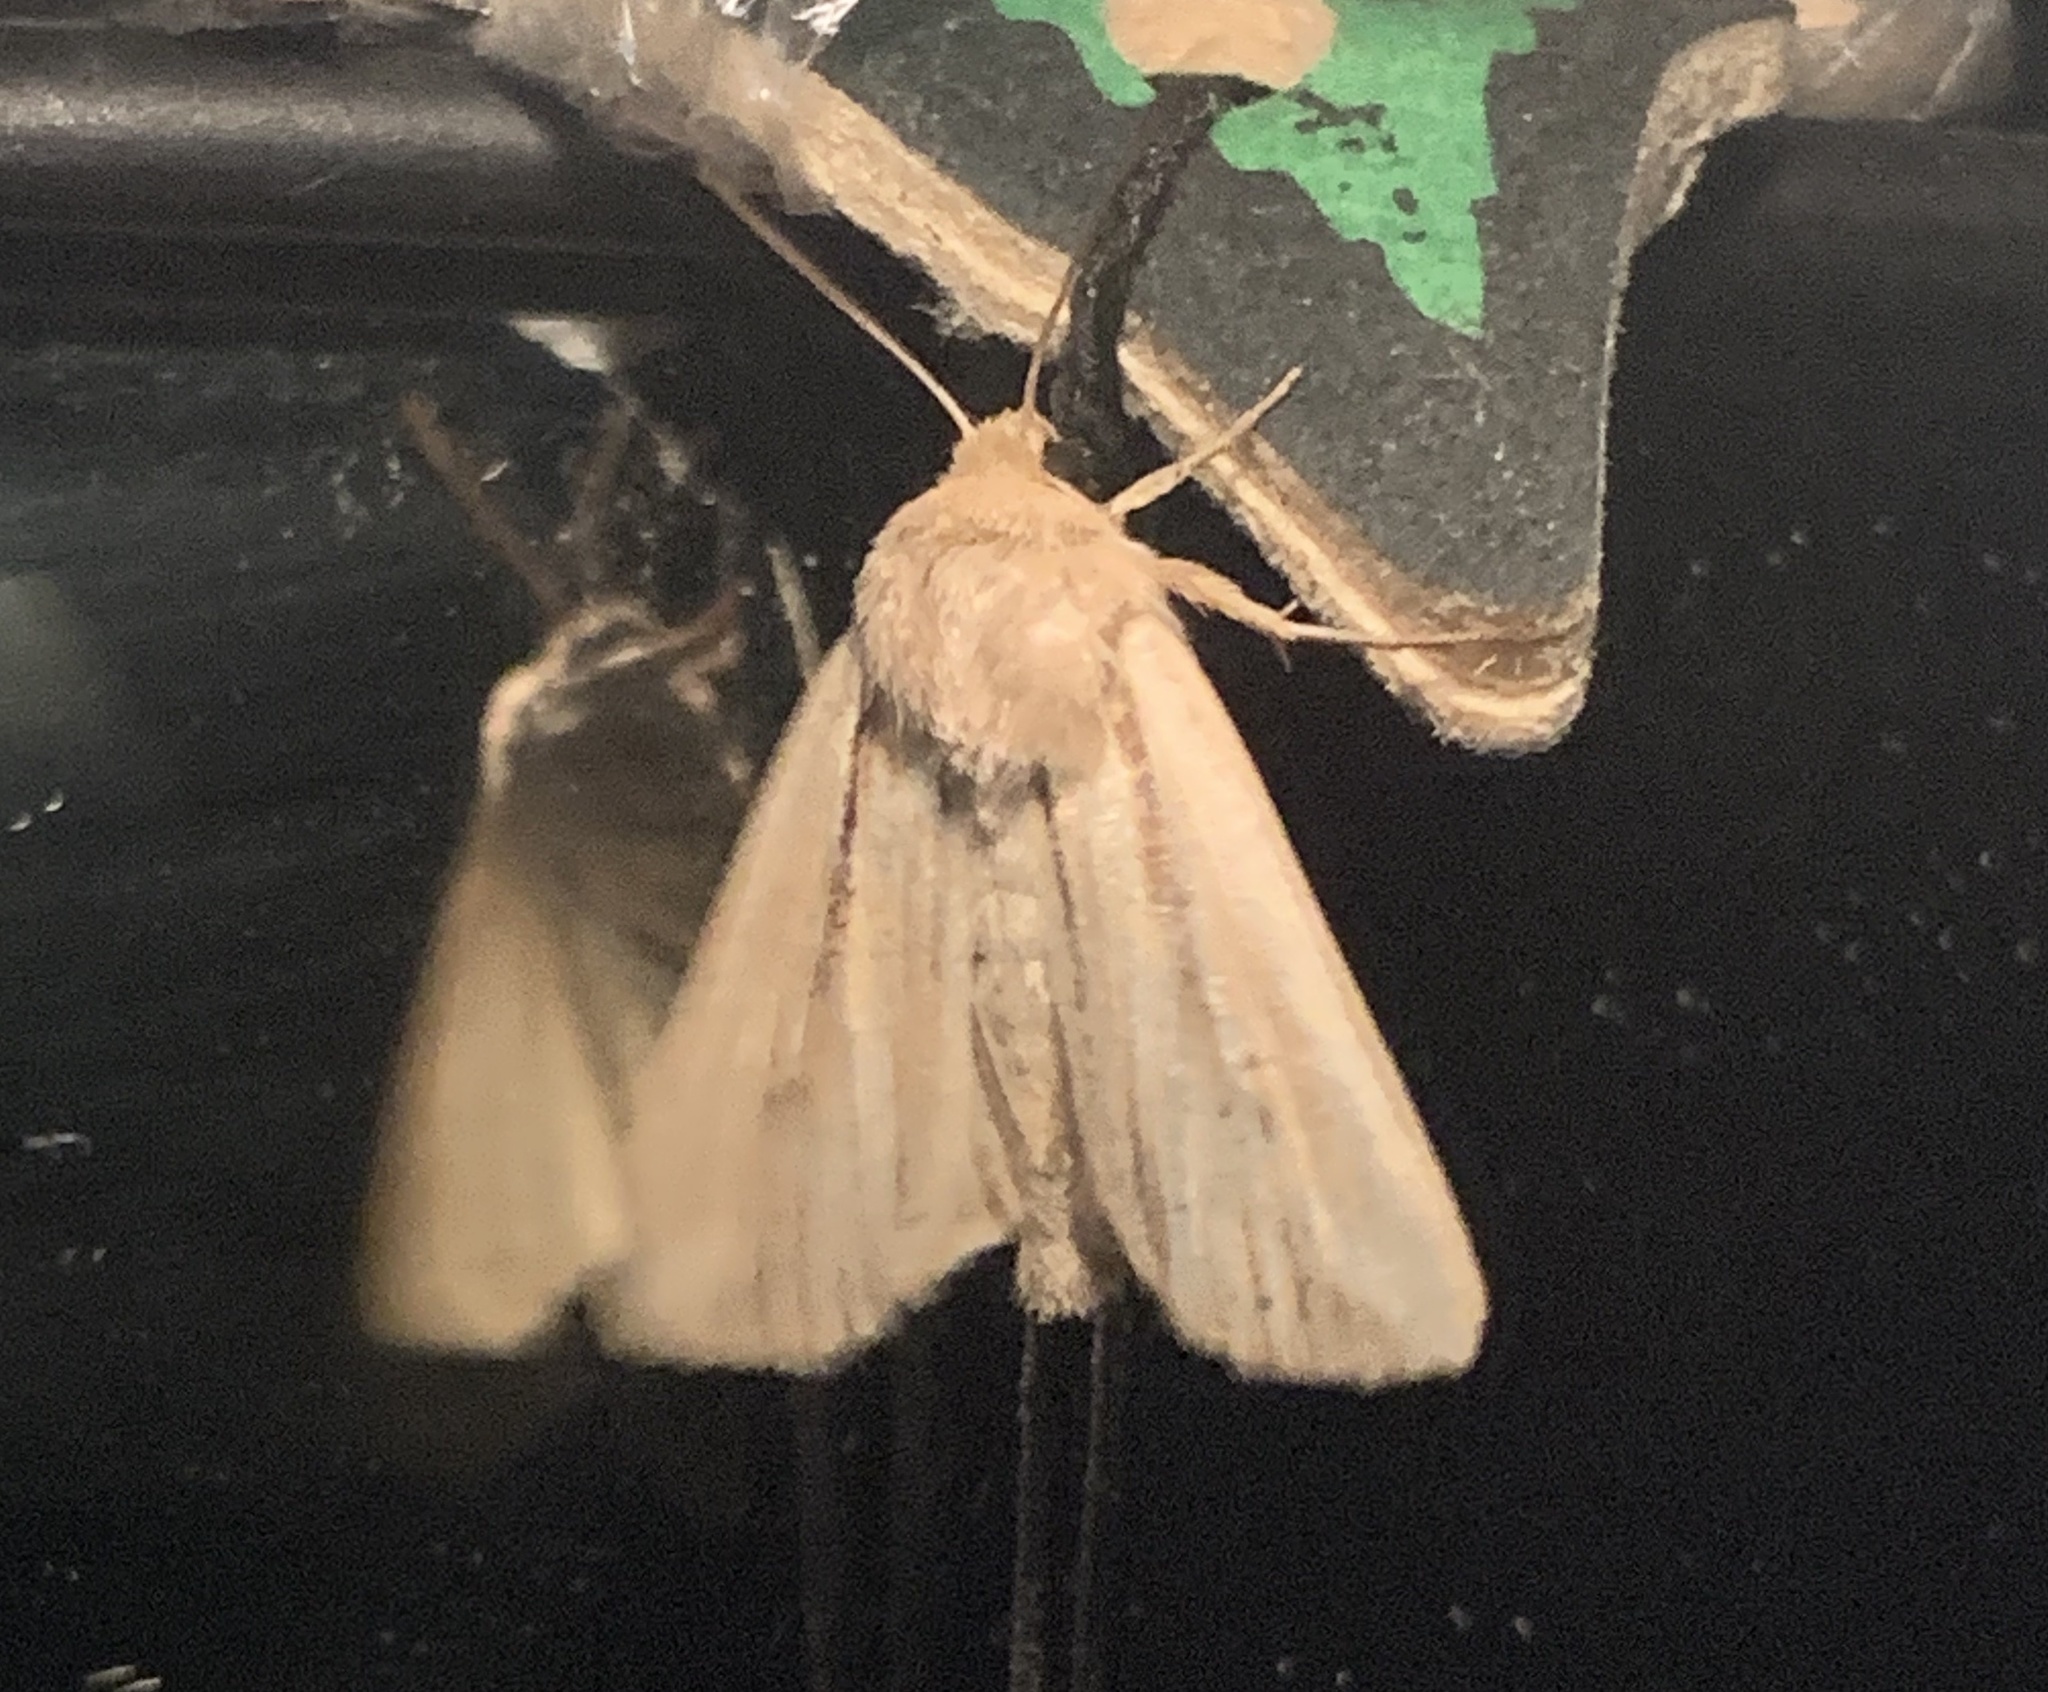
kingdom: Animalia
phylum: Arthropoda
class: Insecta
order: Lepidoptera
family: Noctuidae
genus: Mythimna
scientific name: Mythimna oxygala
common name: Lesser wainscot
